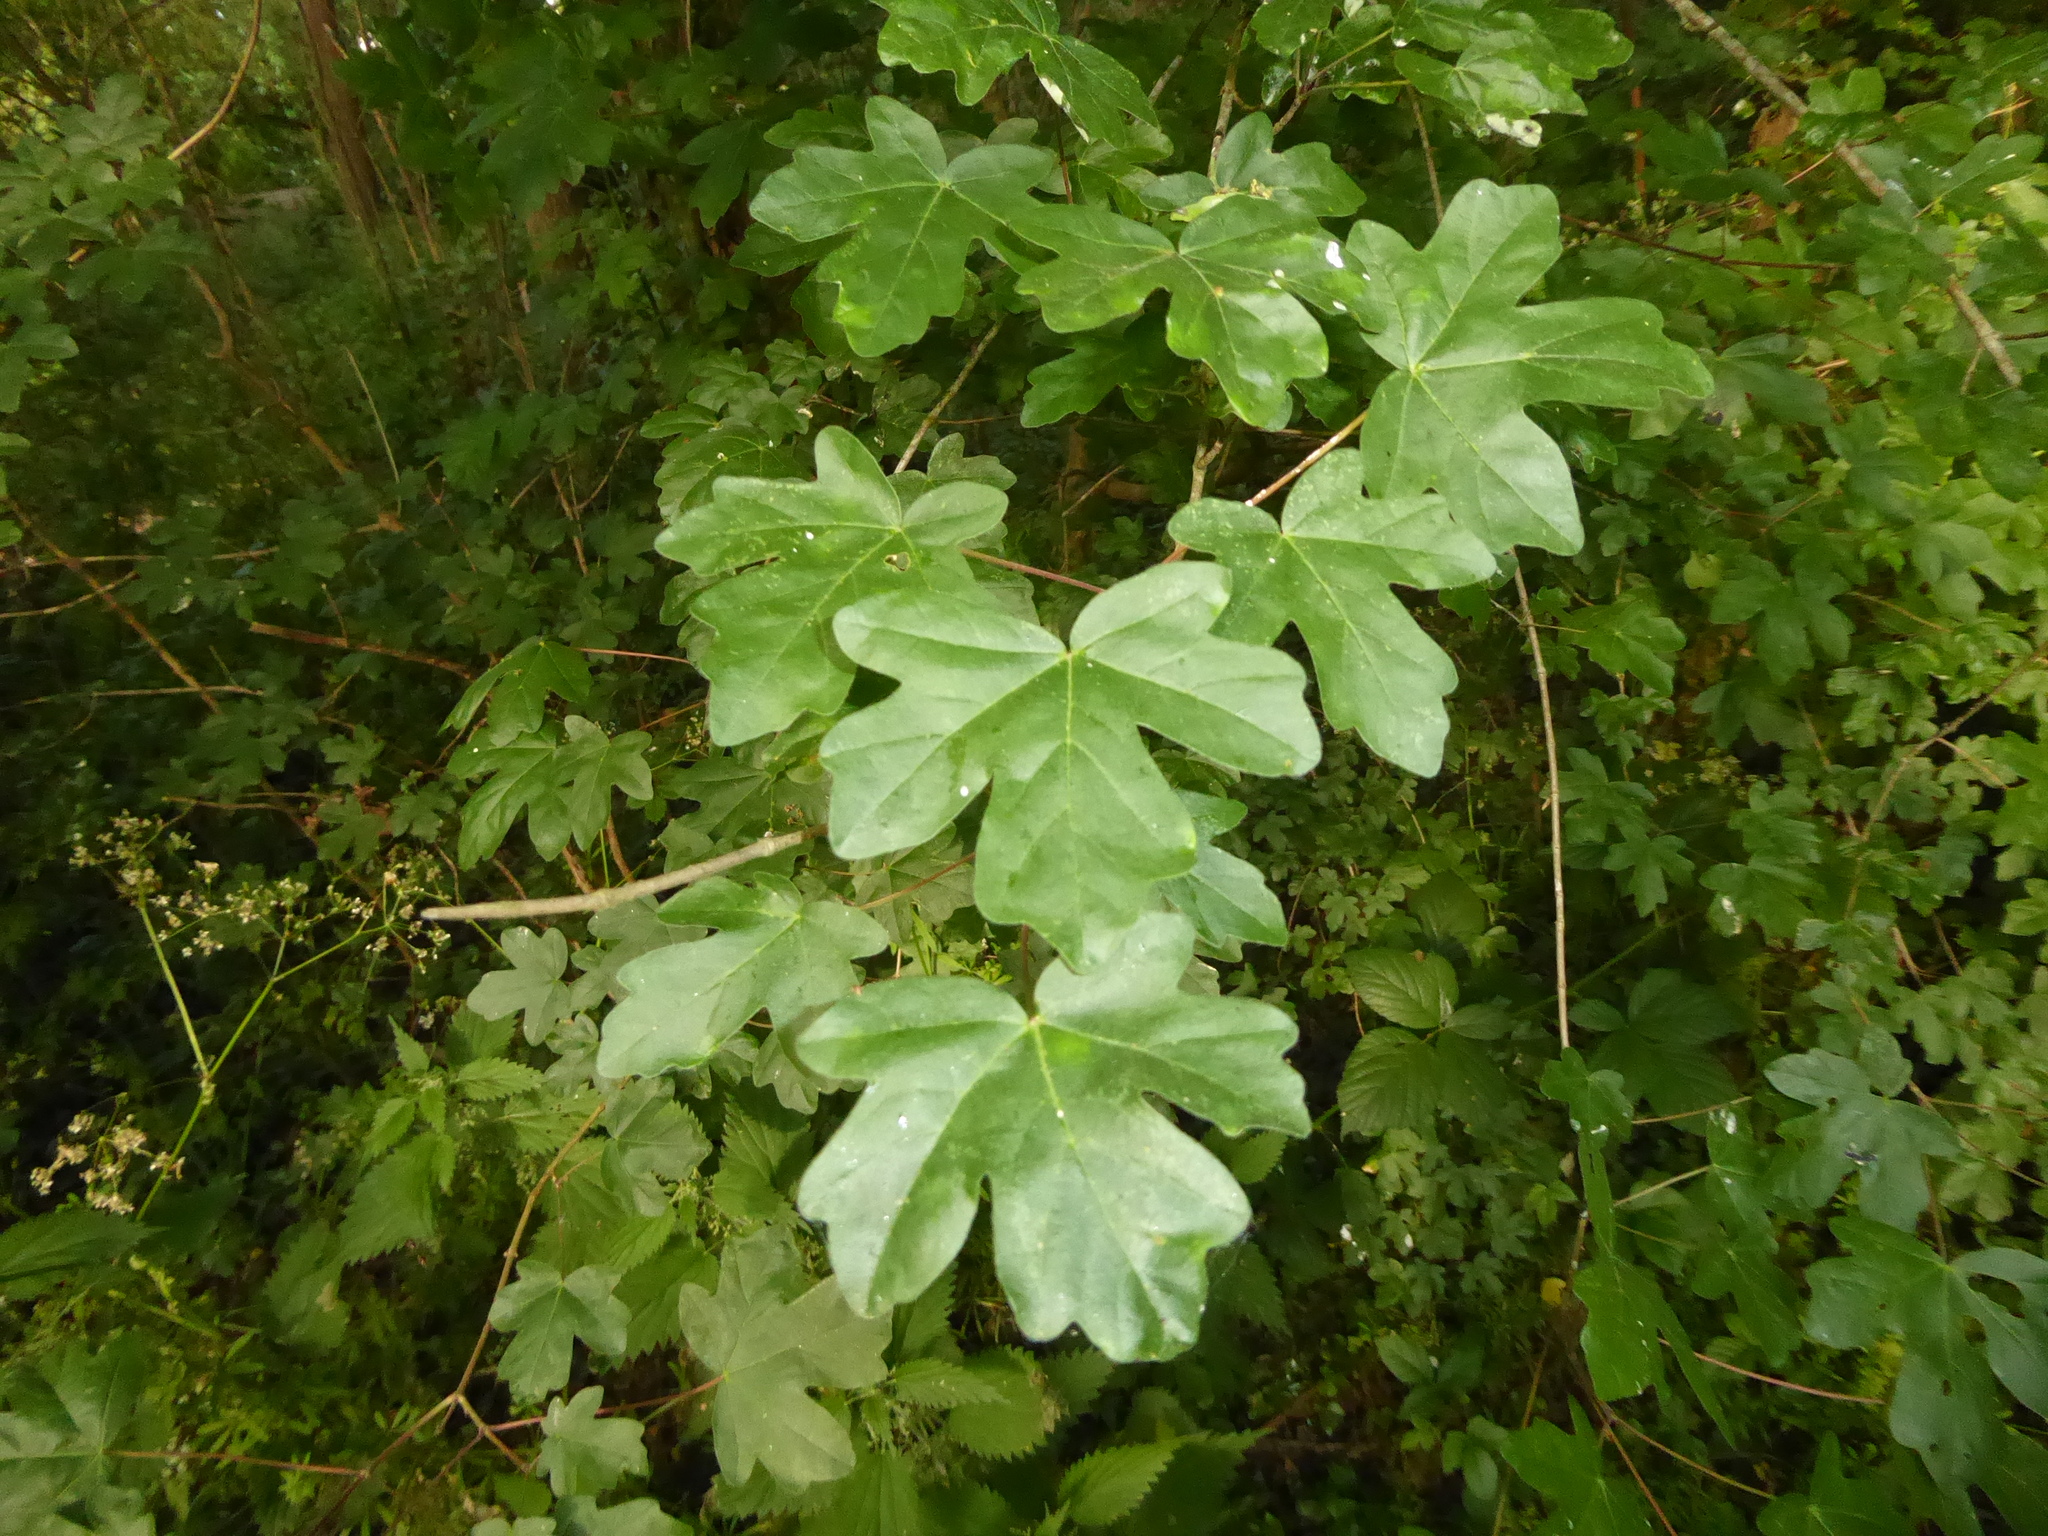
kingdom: Plantae
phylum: Tracheophyta
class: Magnoliopsida
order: Sapindales
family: Sapindaceae
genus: Acer
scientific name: Acer campestre
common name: Field maple
